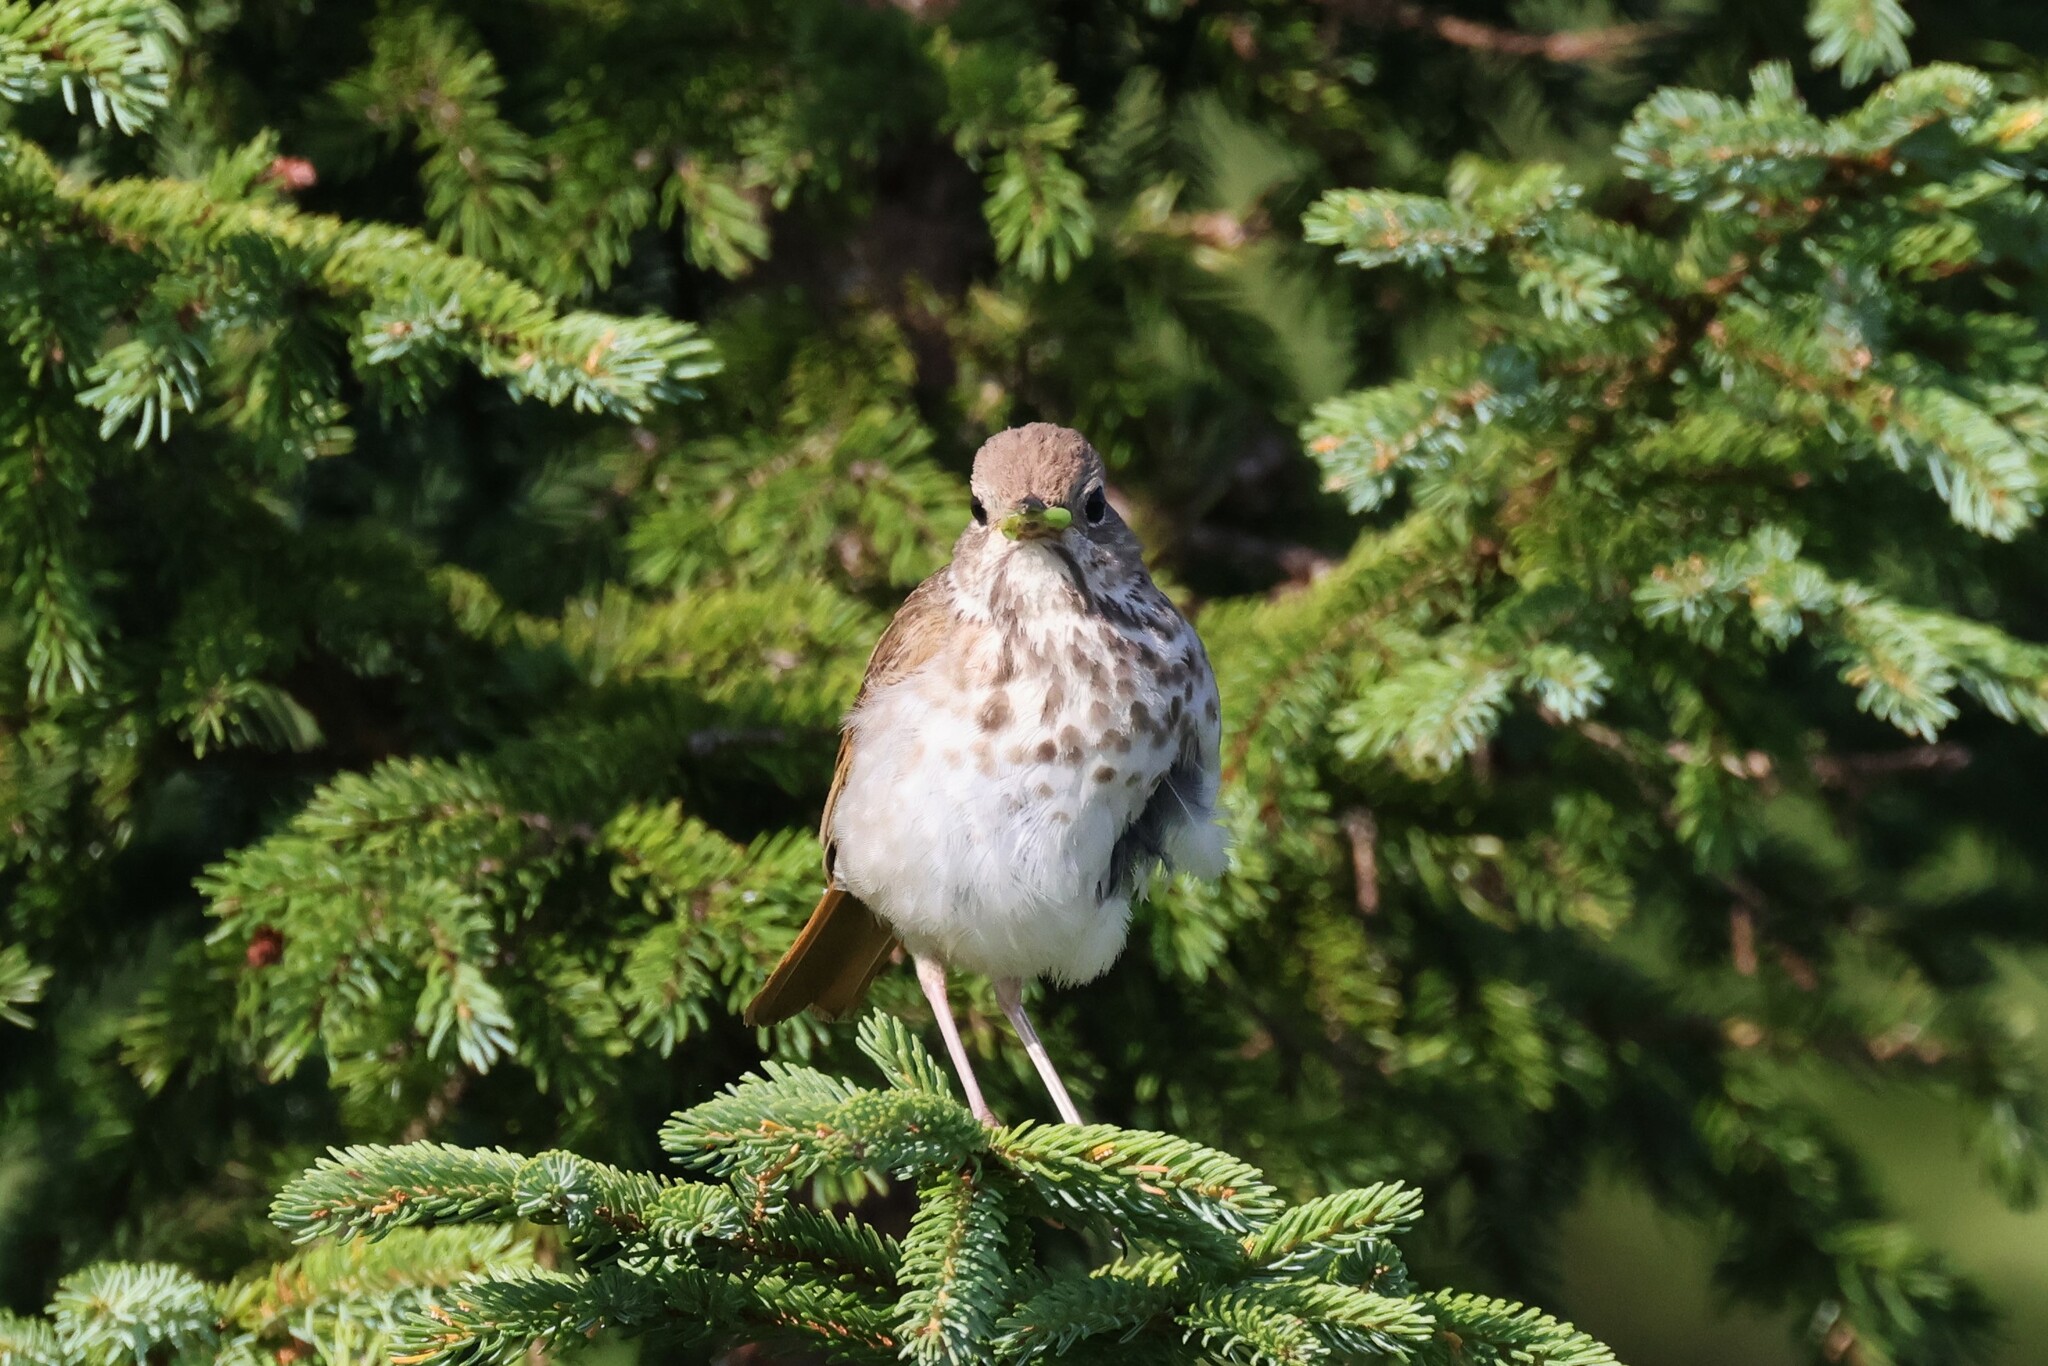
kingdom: Animalia
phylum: Chordata
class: Aves
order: Passeriformes
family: Turdidae
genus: Catharus
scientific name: Catharus guttatus
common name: Hermit thrush
